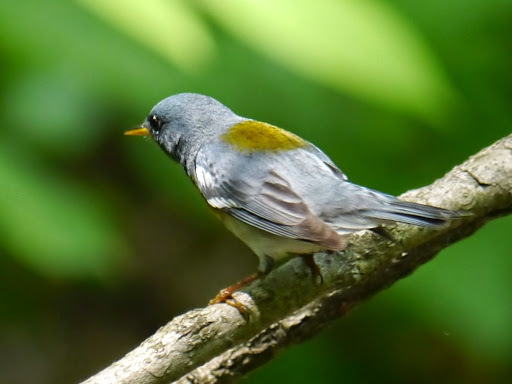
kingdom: Animalia
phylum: Chordata
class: Aves
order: Passeriformes
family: Parulidae
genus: Setophaga
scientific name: Setophaga americana
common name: Northern parula
